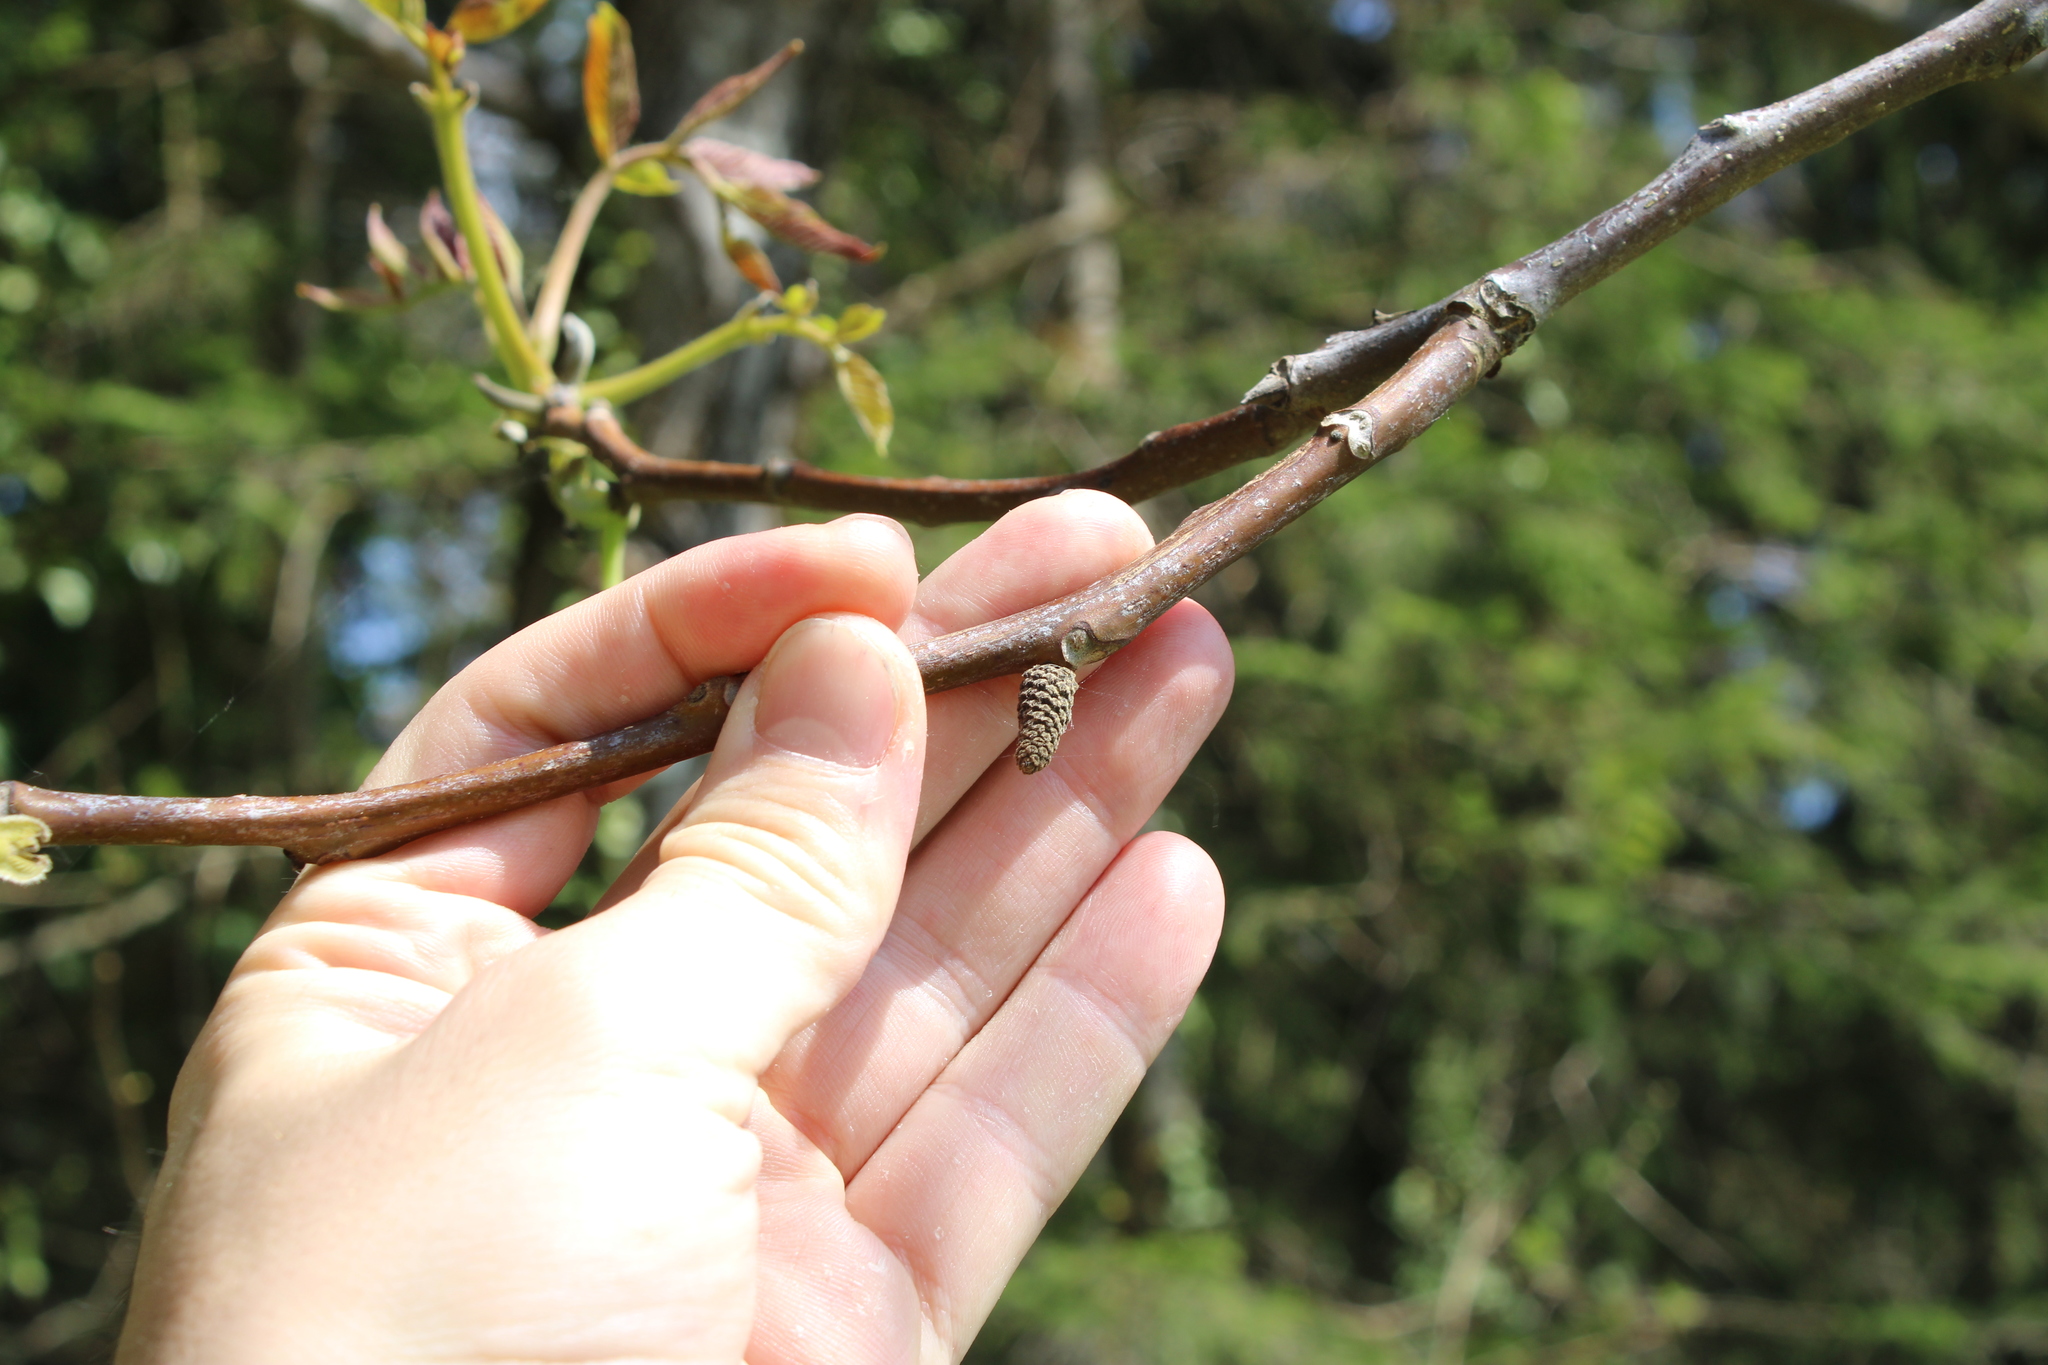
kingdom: Plantae
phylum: Tracheophyta
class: Magnoliopsida
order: Fagales
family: Juglandaceae
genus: Juglans
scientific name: Juglans regia
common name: Walnut
